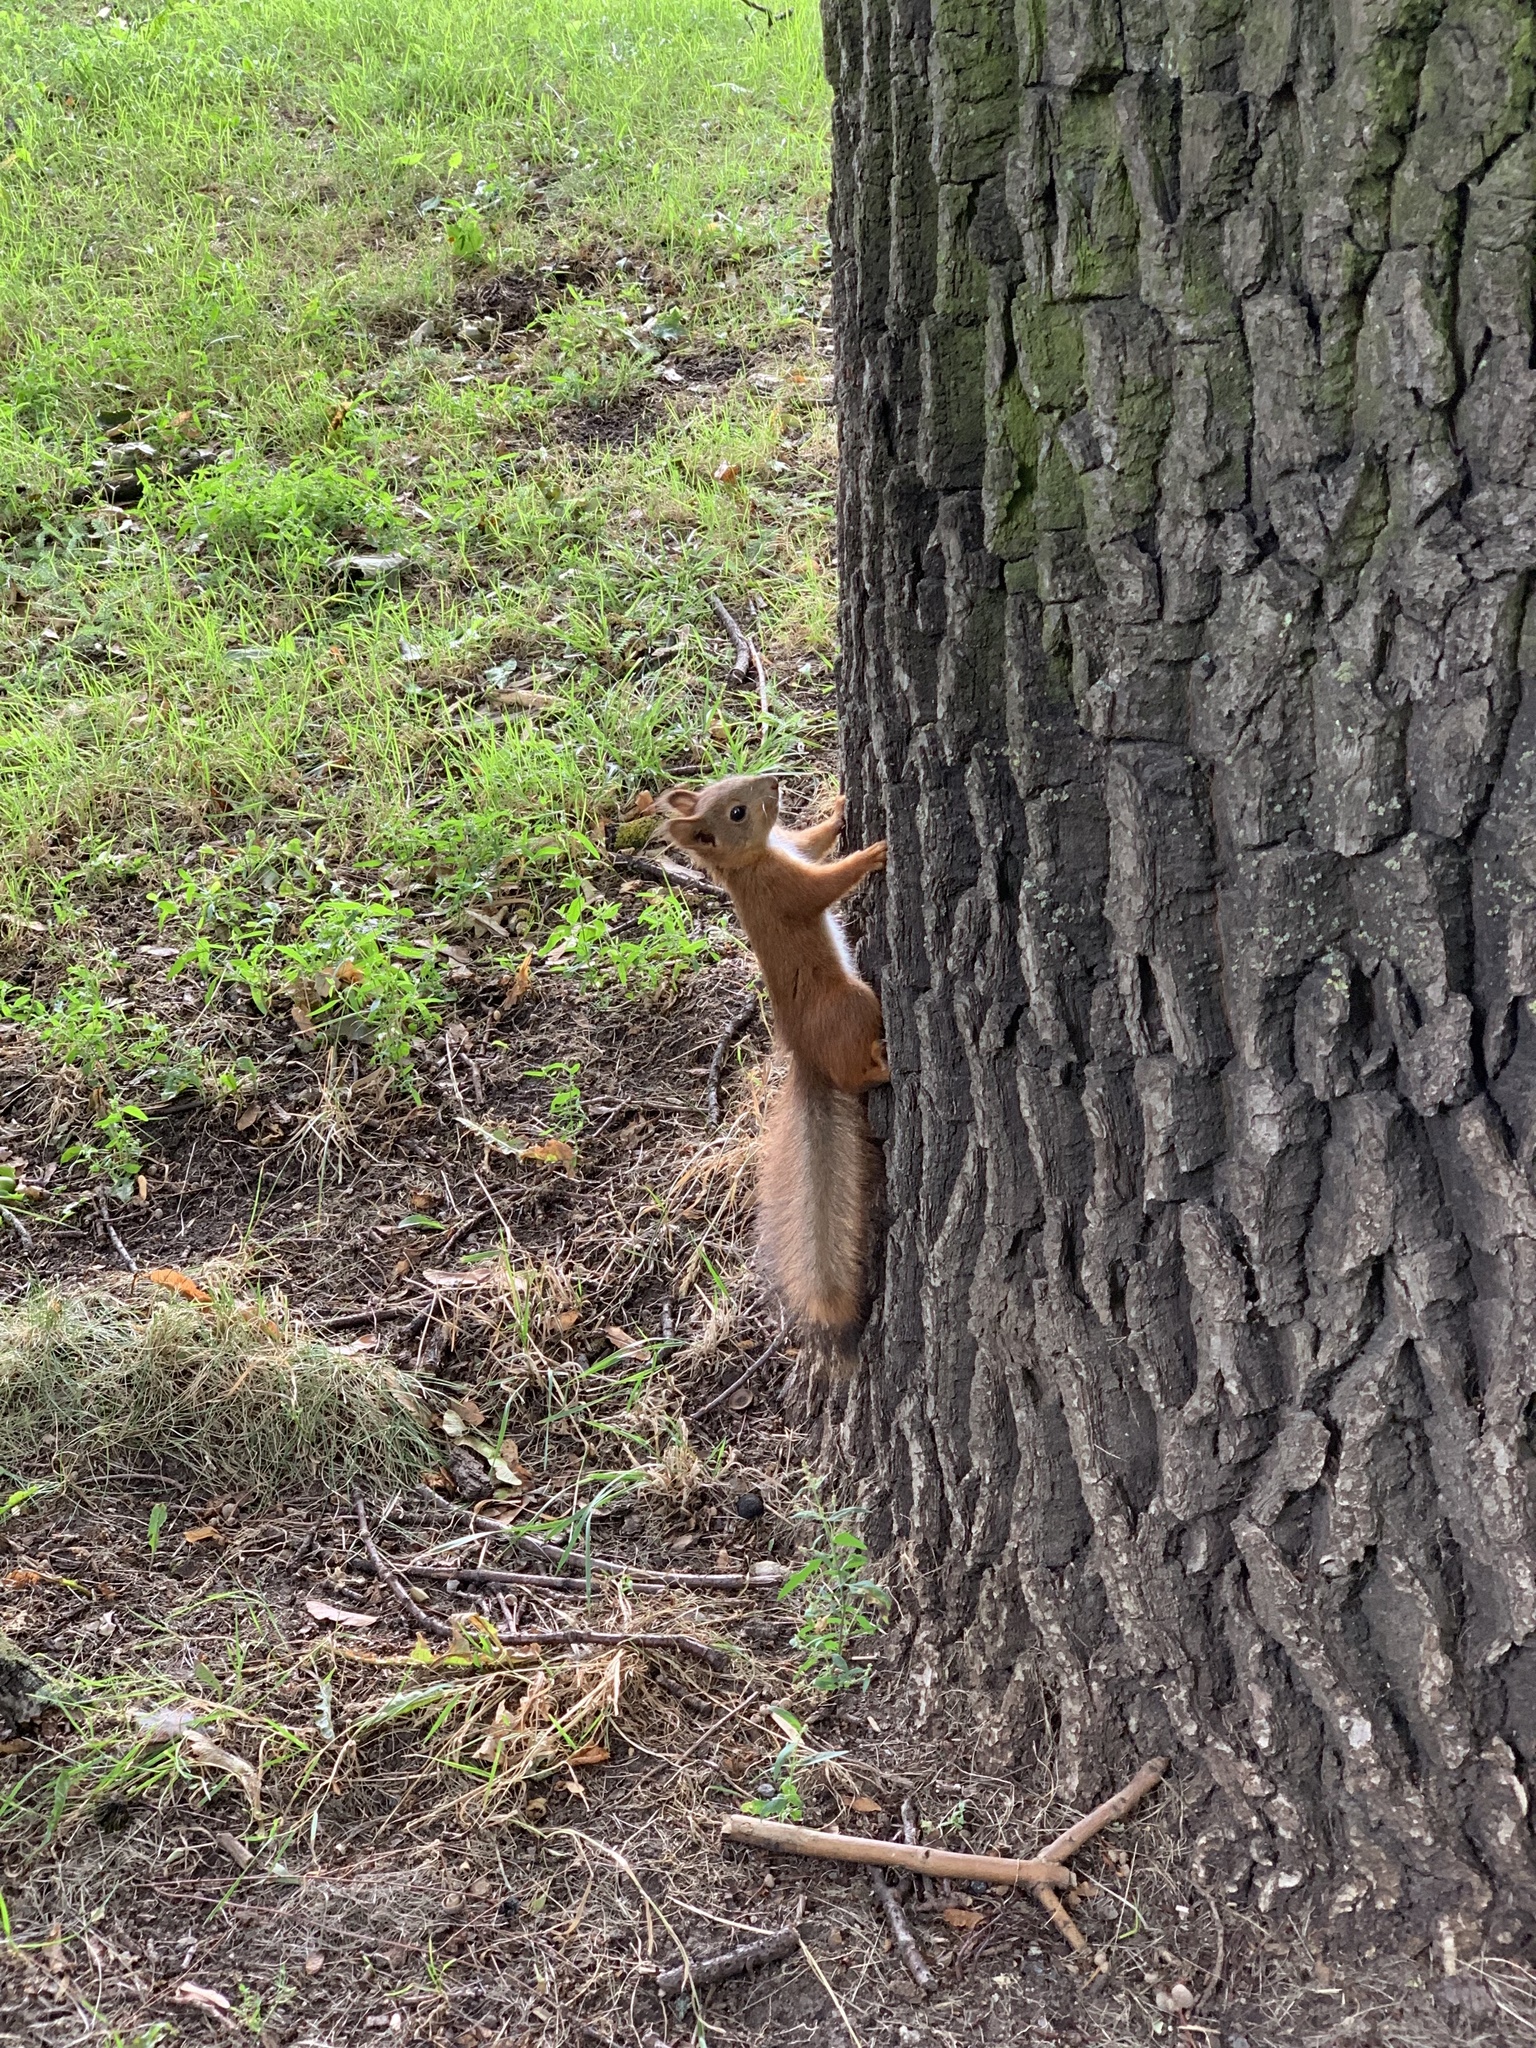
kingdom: Animalia
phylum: Chordata
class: Mammalia
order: Rodentia
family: Sciuridae
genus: Sciurus
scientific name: Sciurus vulgaris
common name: Eurasian red squirrel
